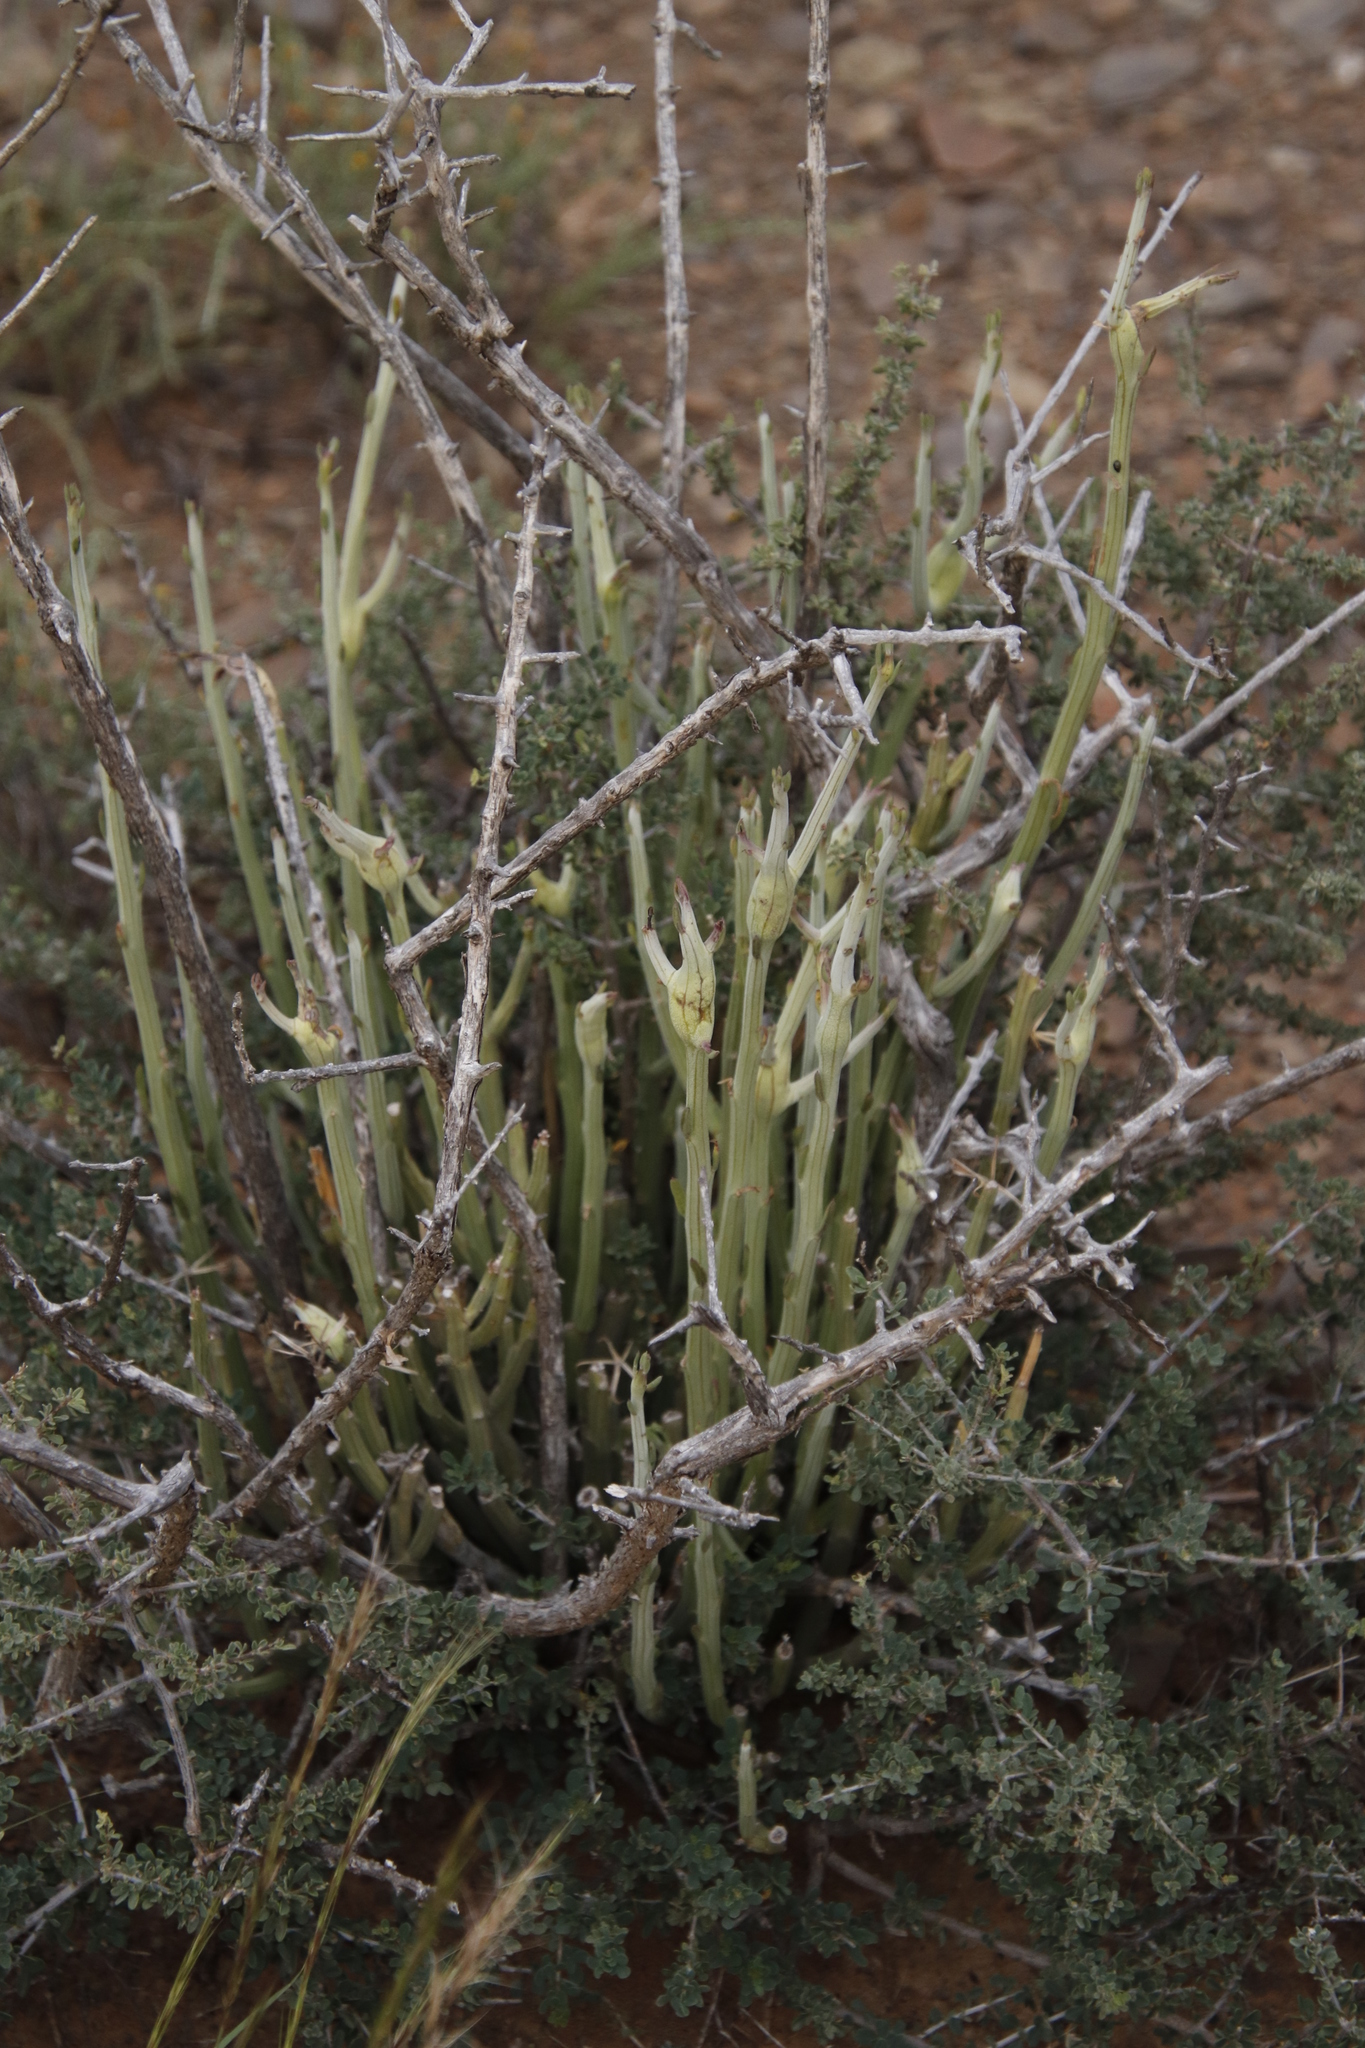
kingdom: Plantae
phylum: Tracheophyta
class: Magnoliopsida
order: Asterales
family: Asteraceae
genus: Curio
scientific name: Curio avasimontanus
